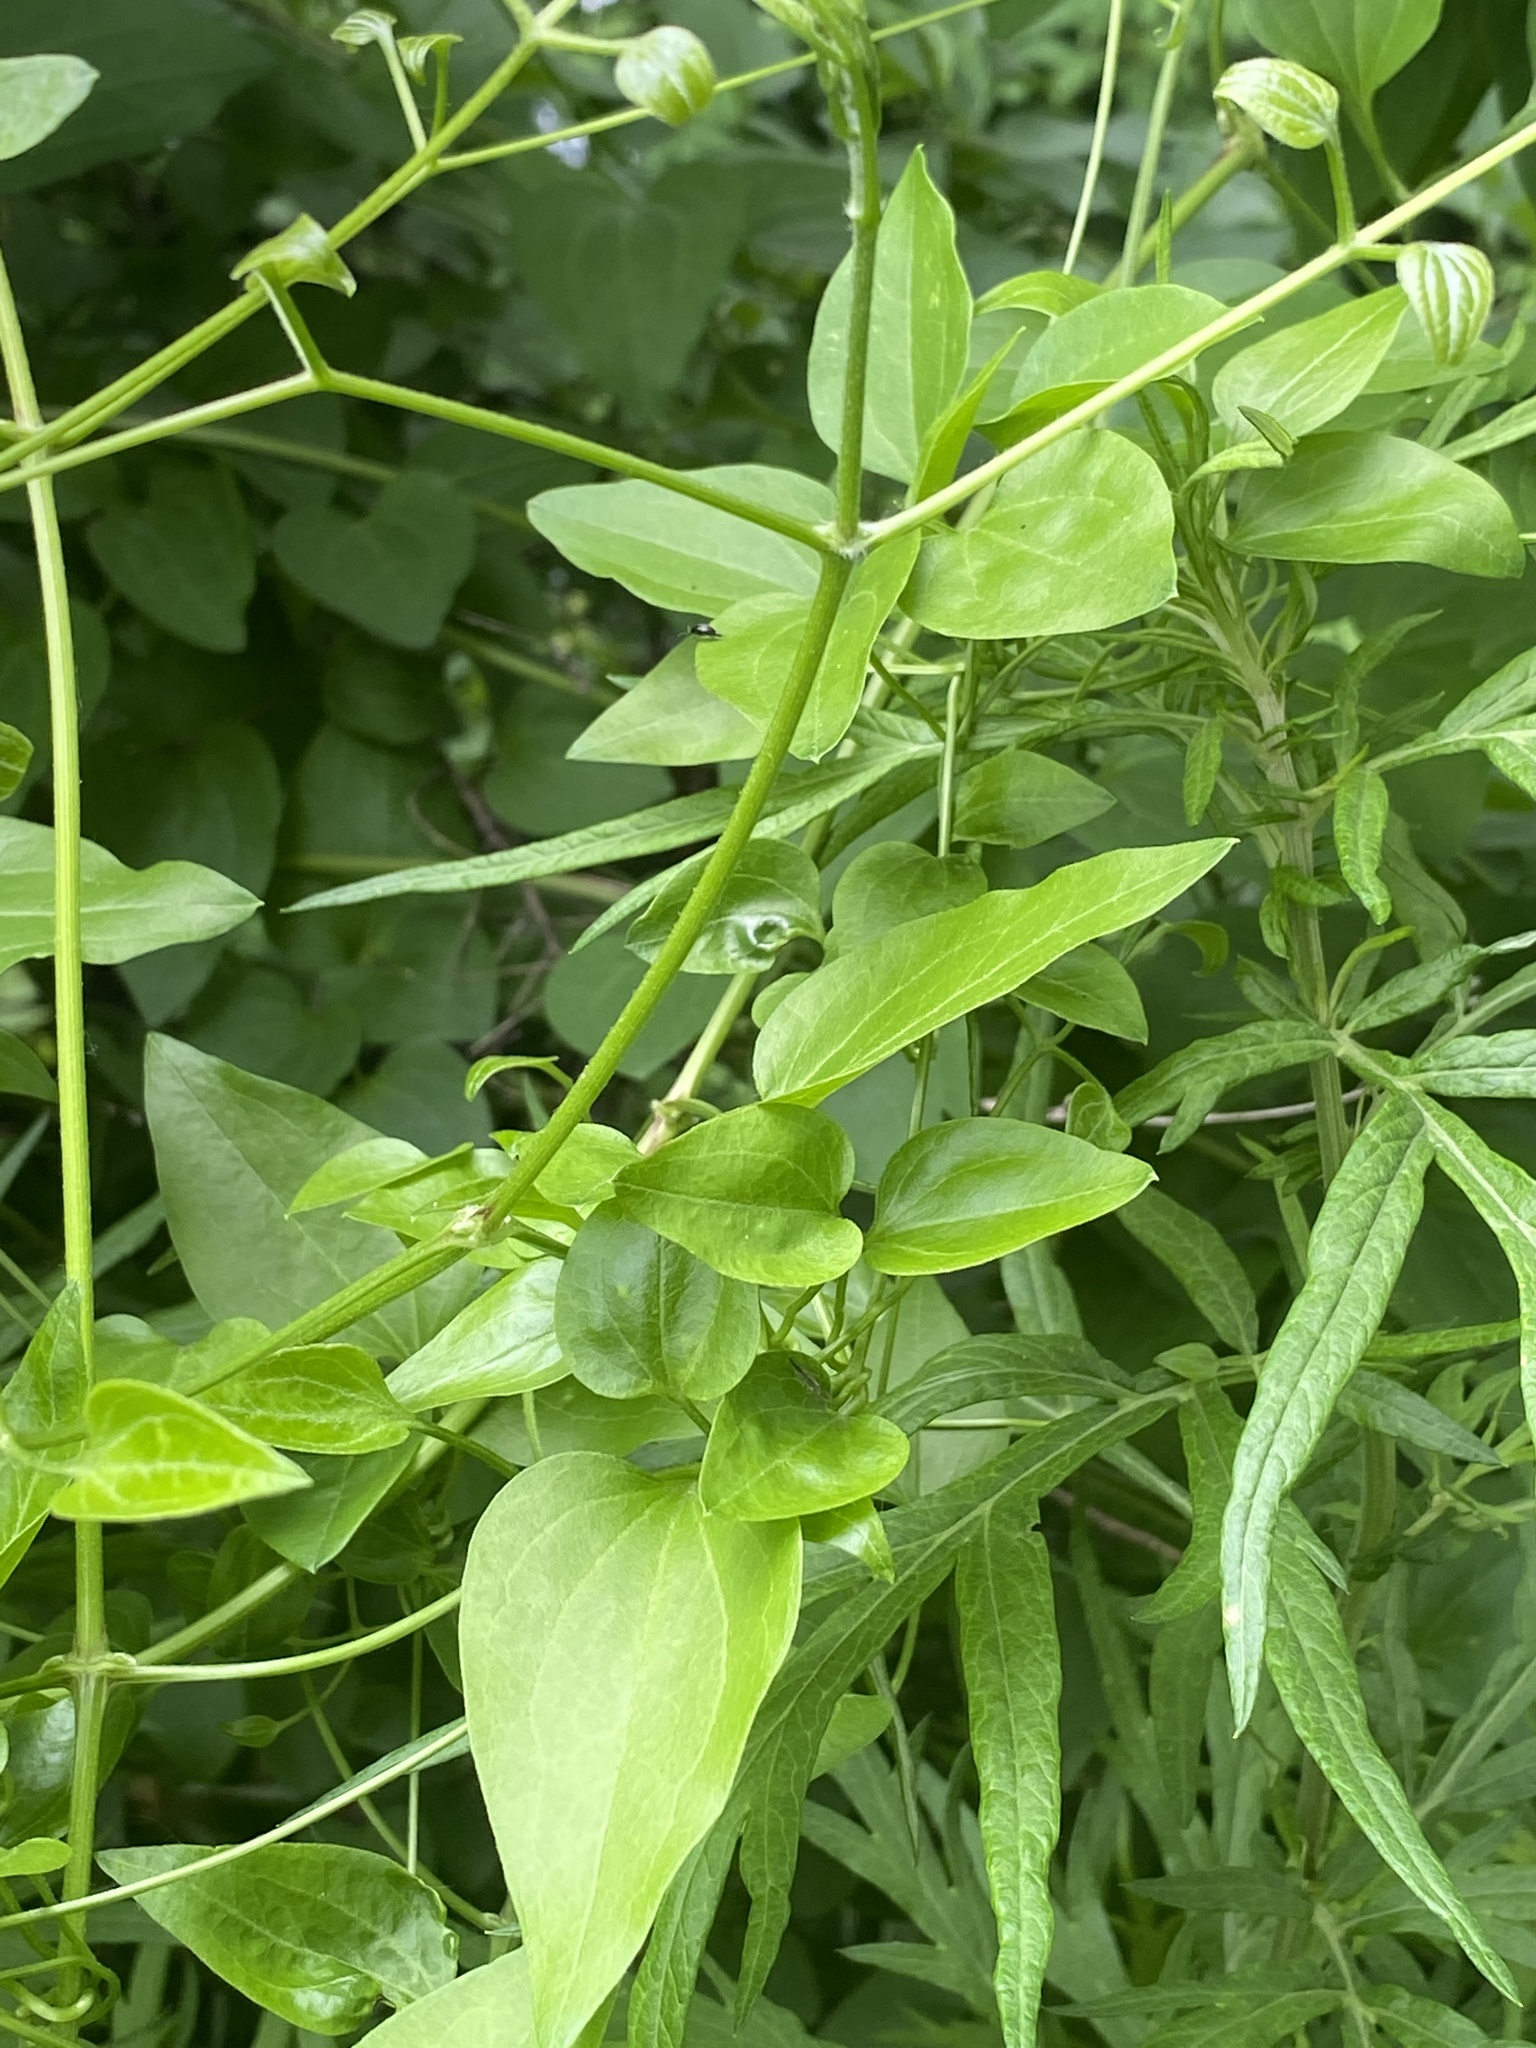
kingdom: Plantae
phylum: Tracheophyta
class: Magnoliopsida
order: Ranunculales
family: Ranunculaceae
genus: Clematis
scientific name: Clematis terniflora
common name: Sweet autumn clematis
